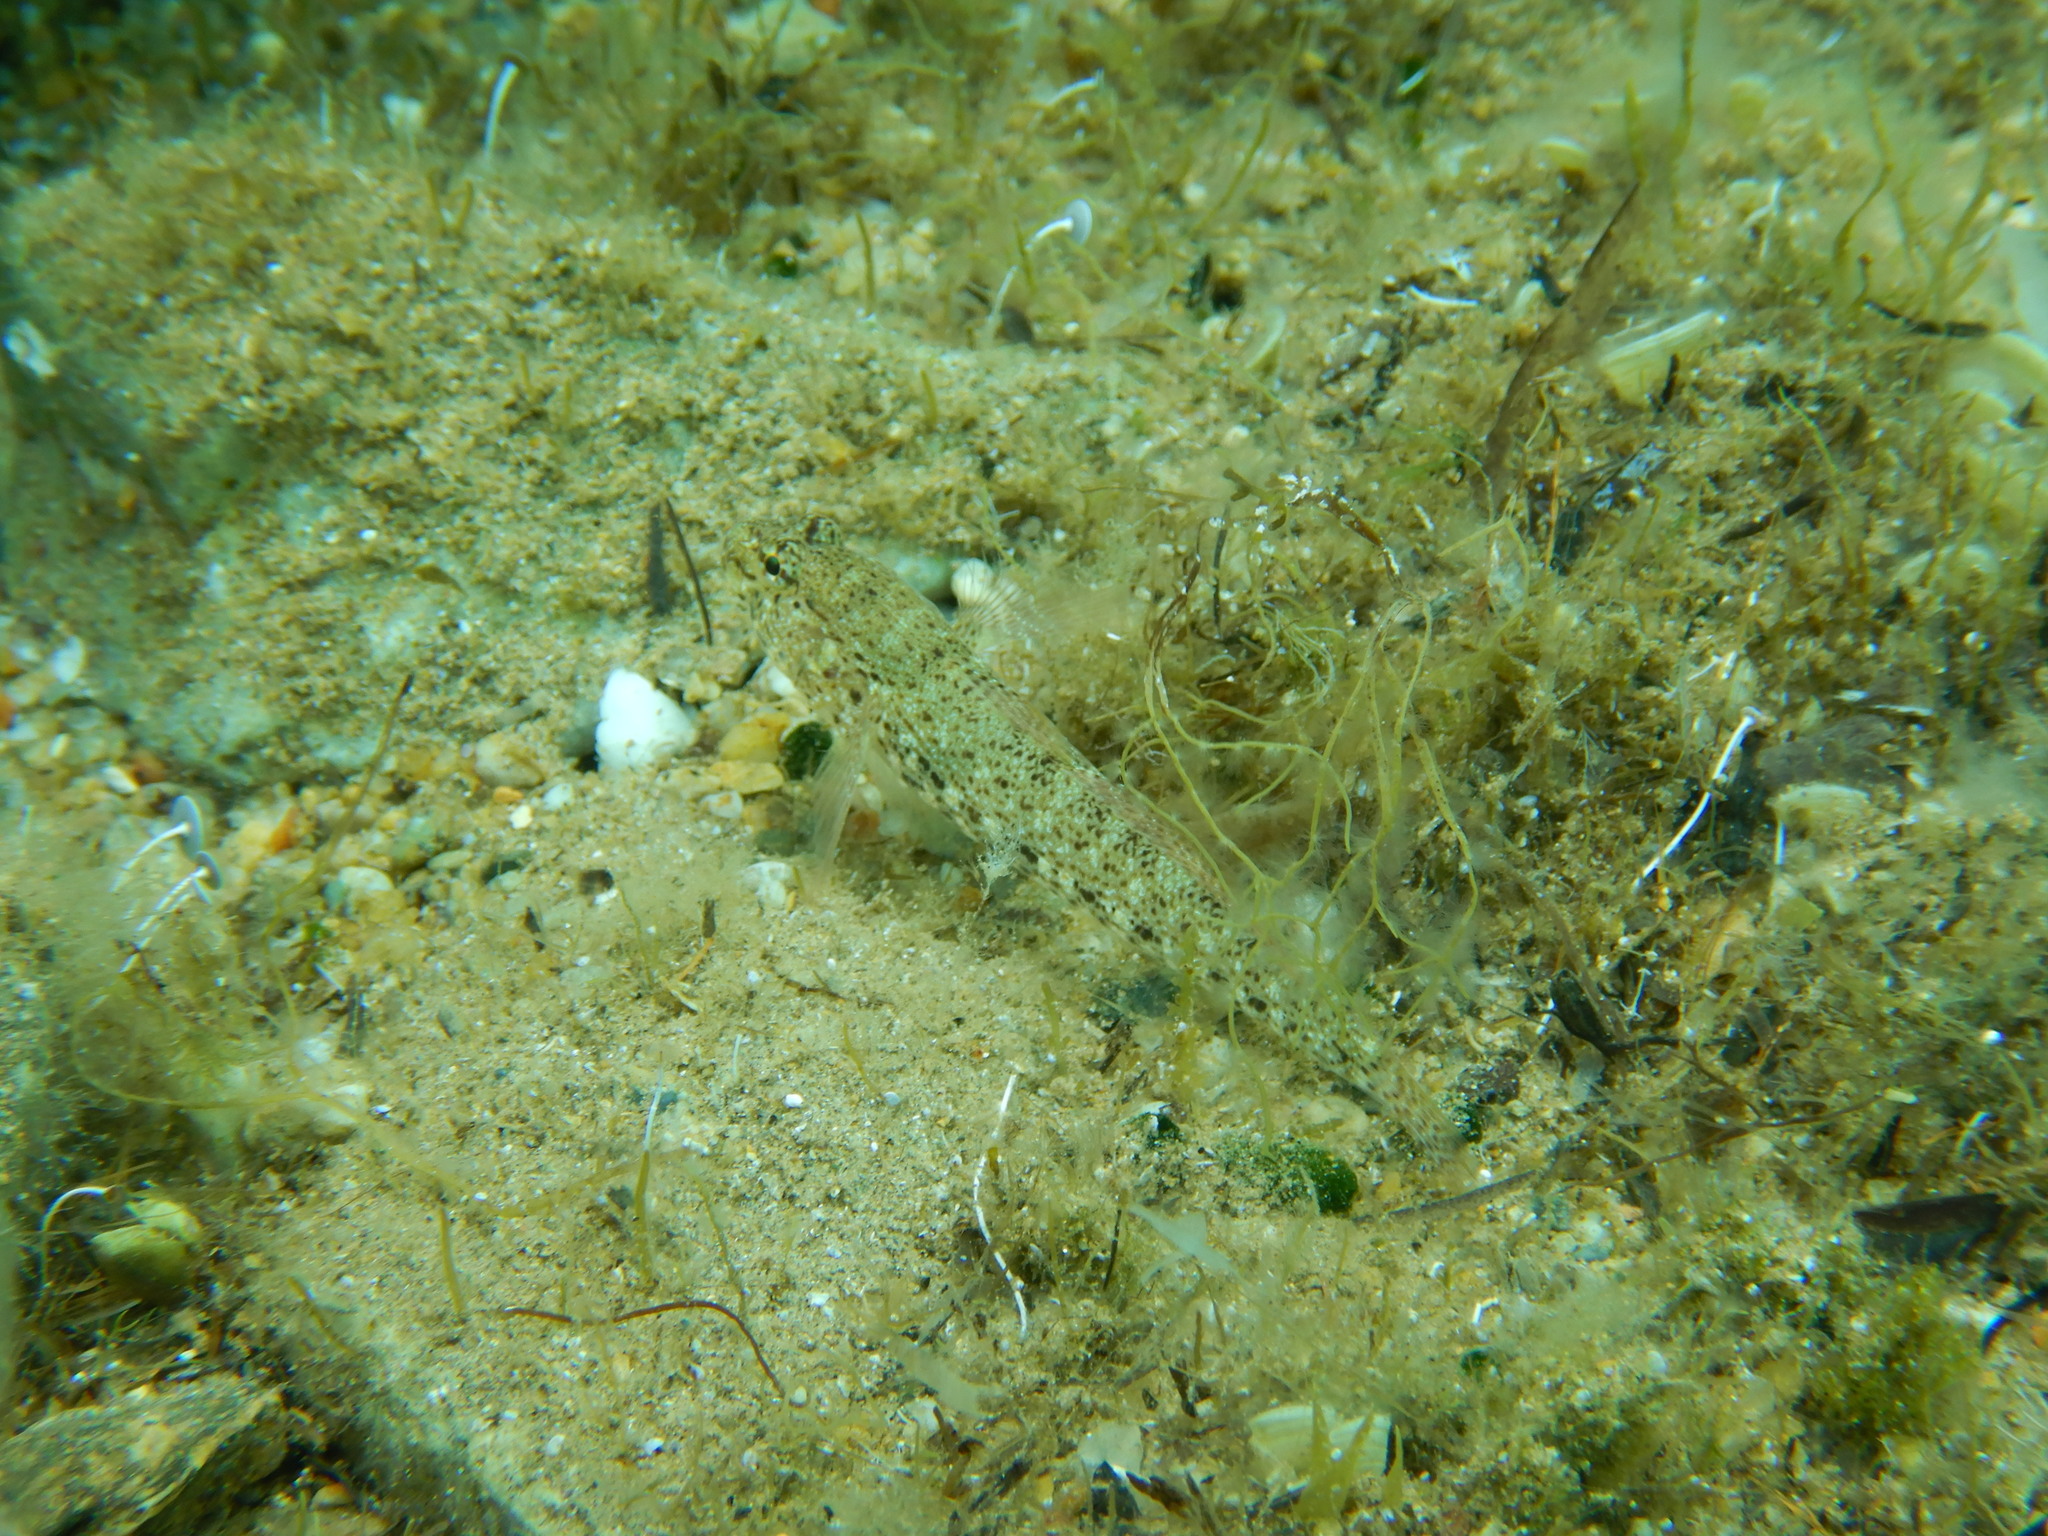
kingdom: Animalia
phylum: Chordata
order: Perciformes
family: Gobiidae
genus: Gobius
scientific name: Gobius incognitus
